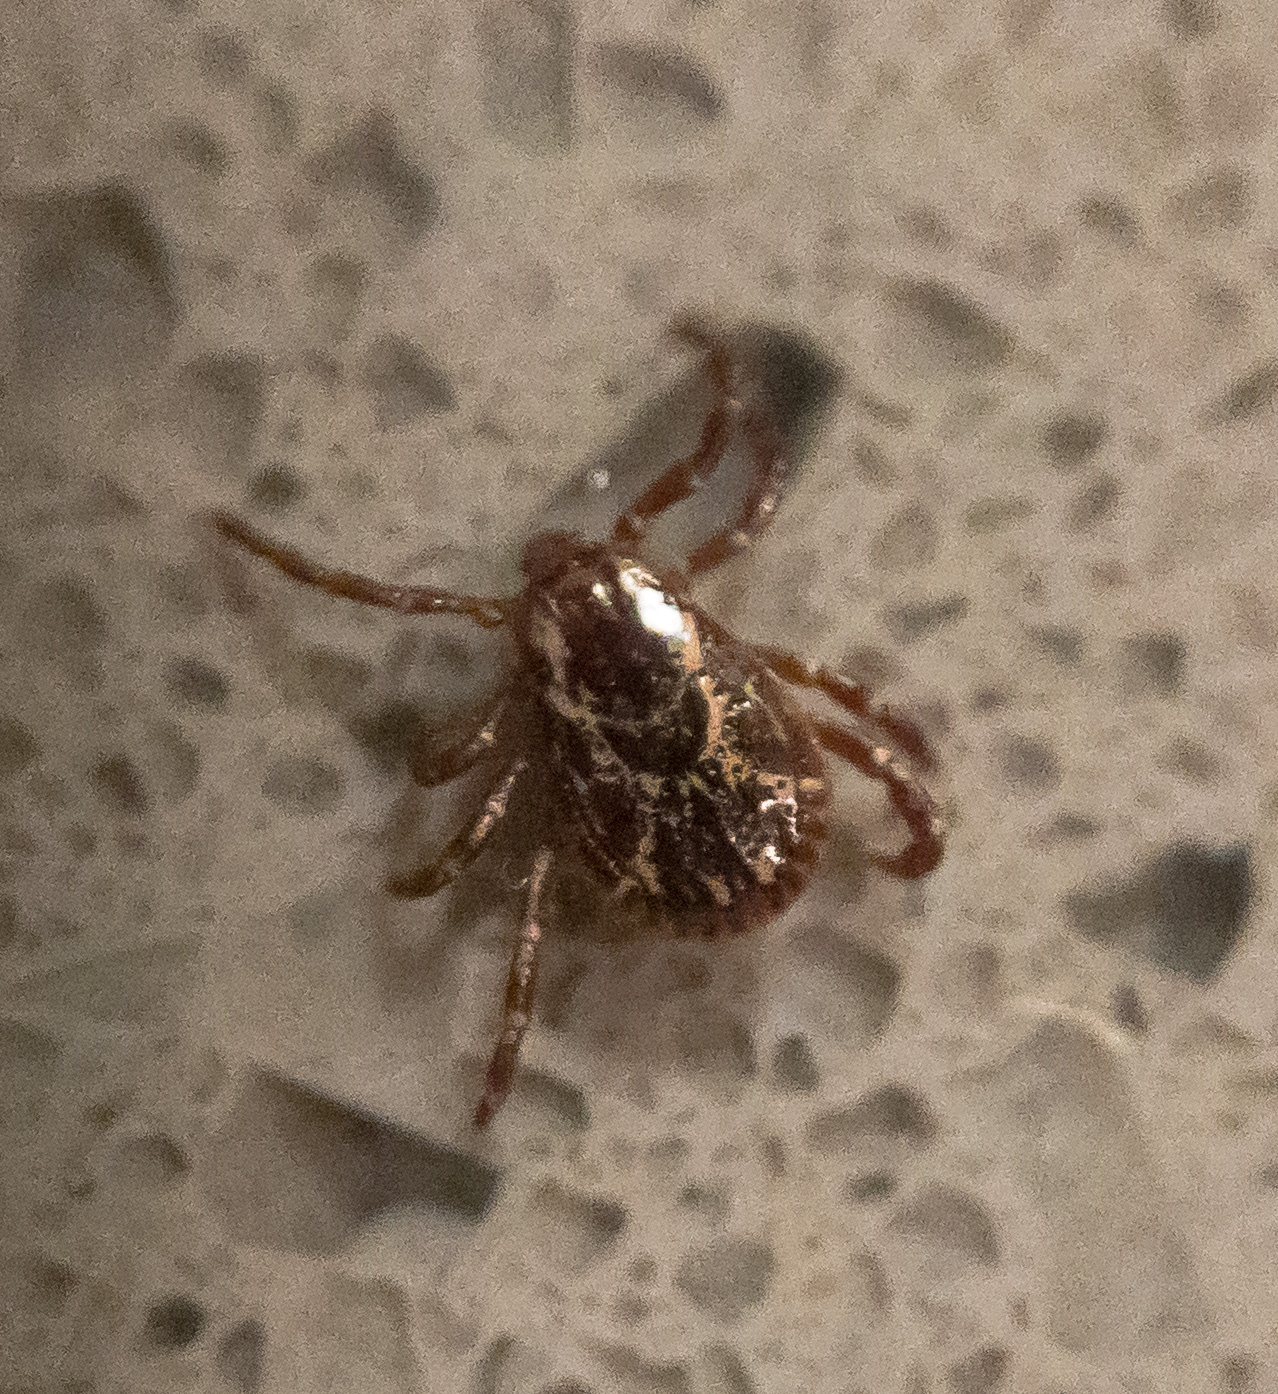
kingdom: Animalia
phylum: Arthropoda
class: Arachnida
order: Ixodida
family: Ixodidae
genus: Dermacentor
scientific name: Dermacentor variabilis
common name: American dog tick
